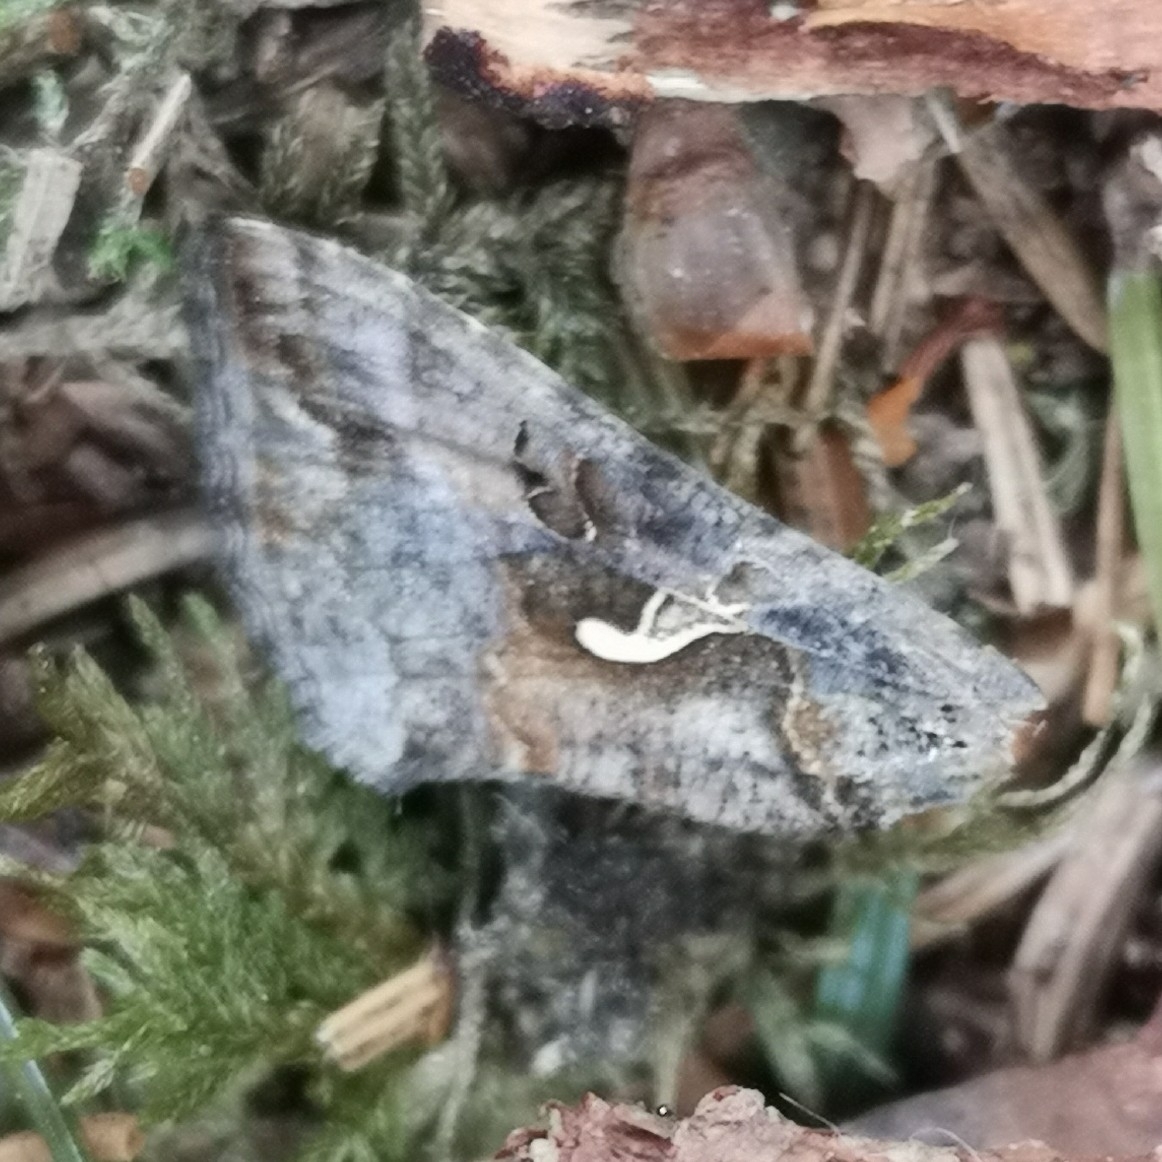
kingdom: Animalia
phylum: Arthropoda
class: Insecta
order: Lepidoptera
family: Noctuidae
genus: Autographa
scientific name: Autographa gamma
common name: Silver y
